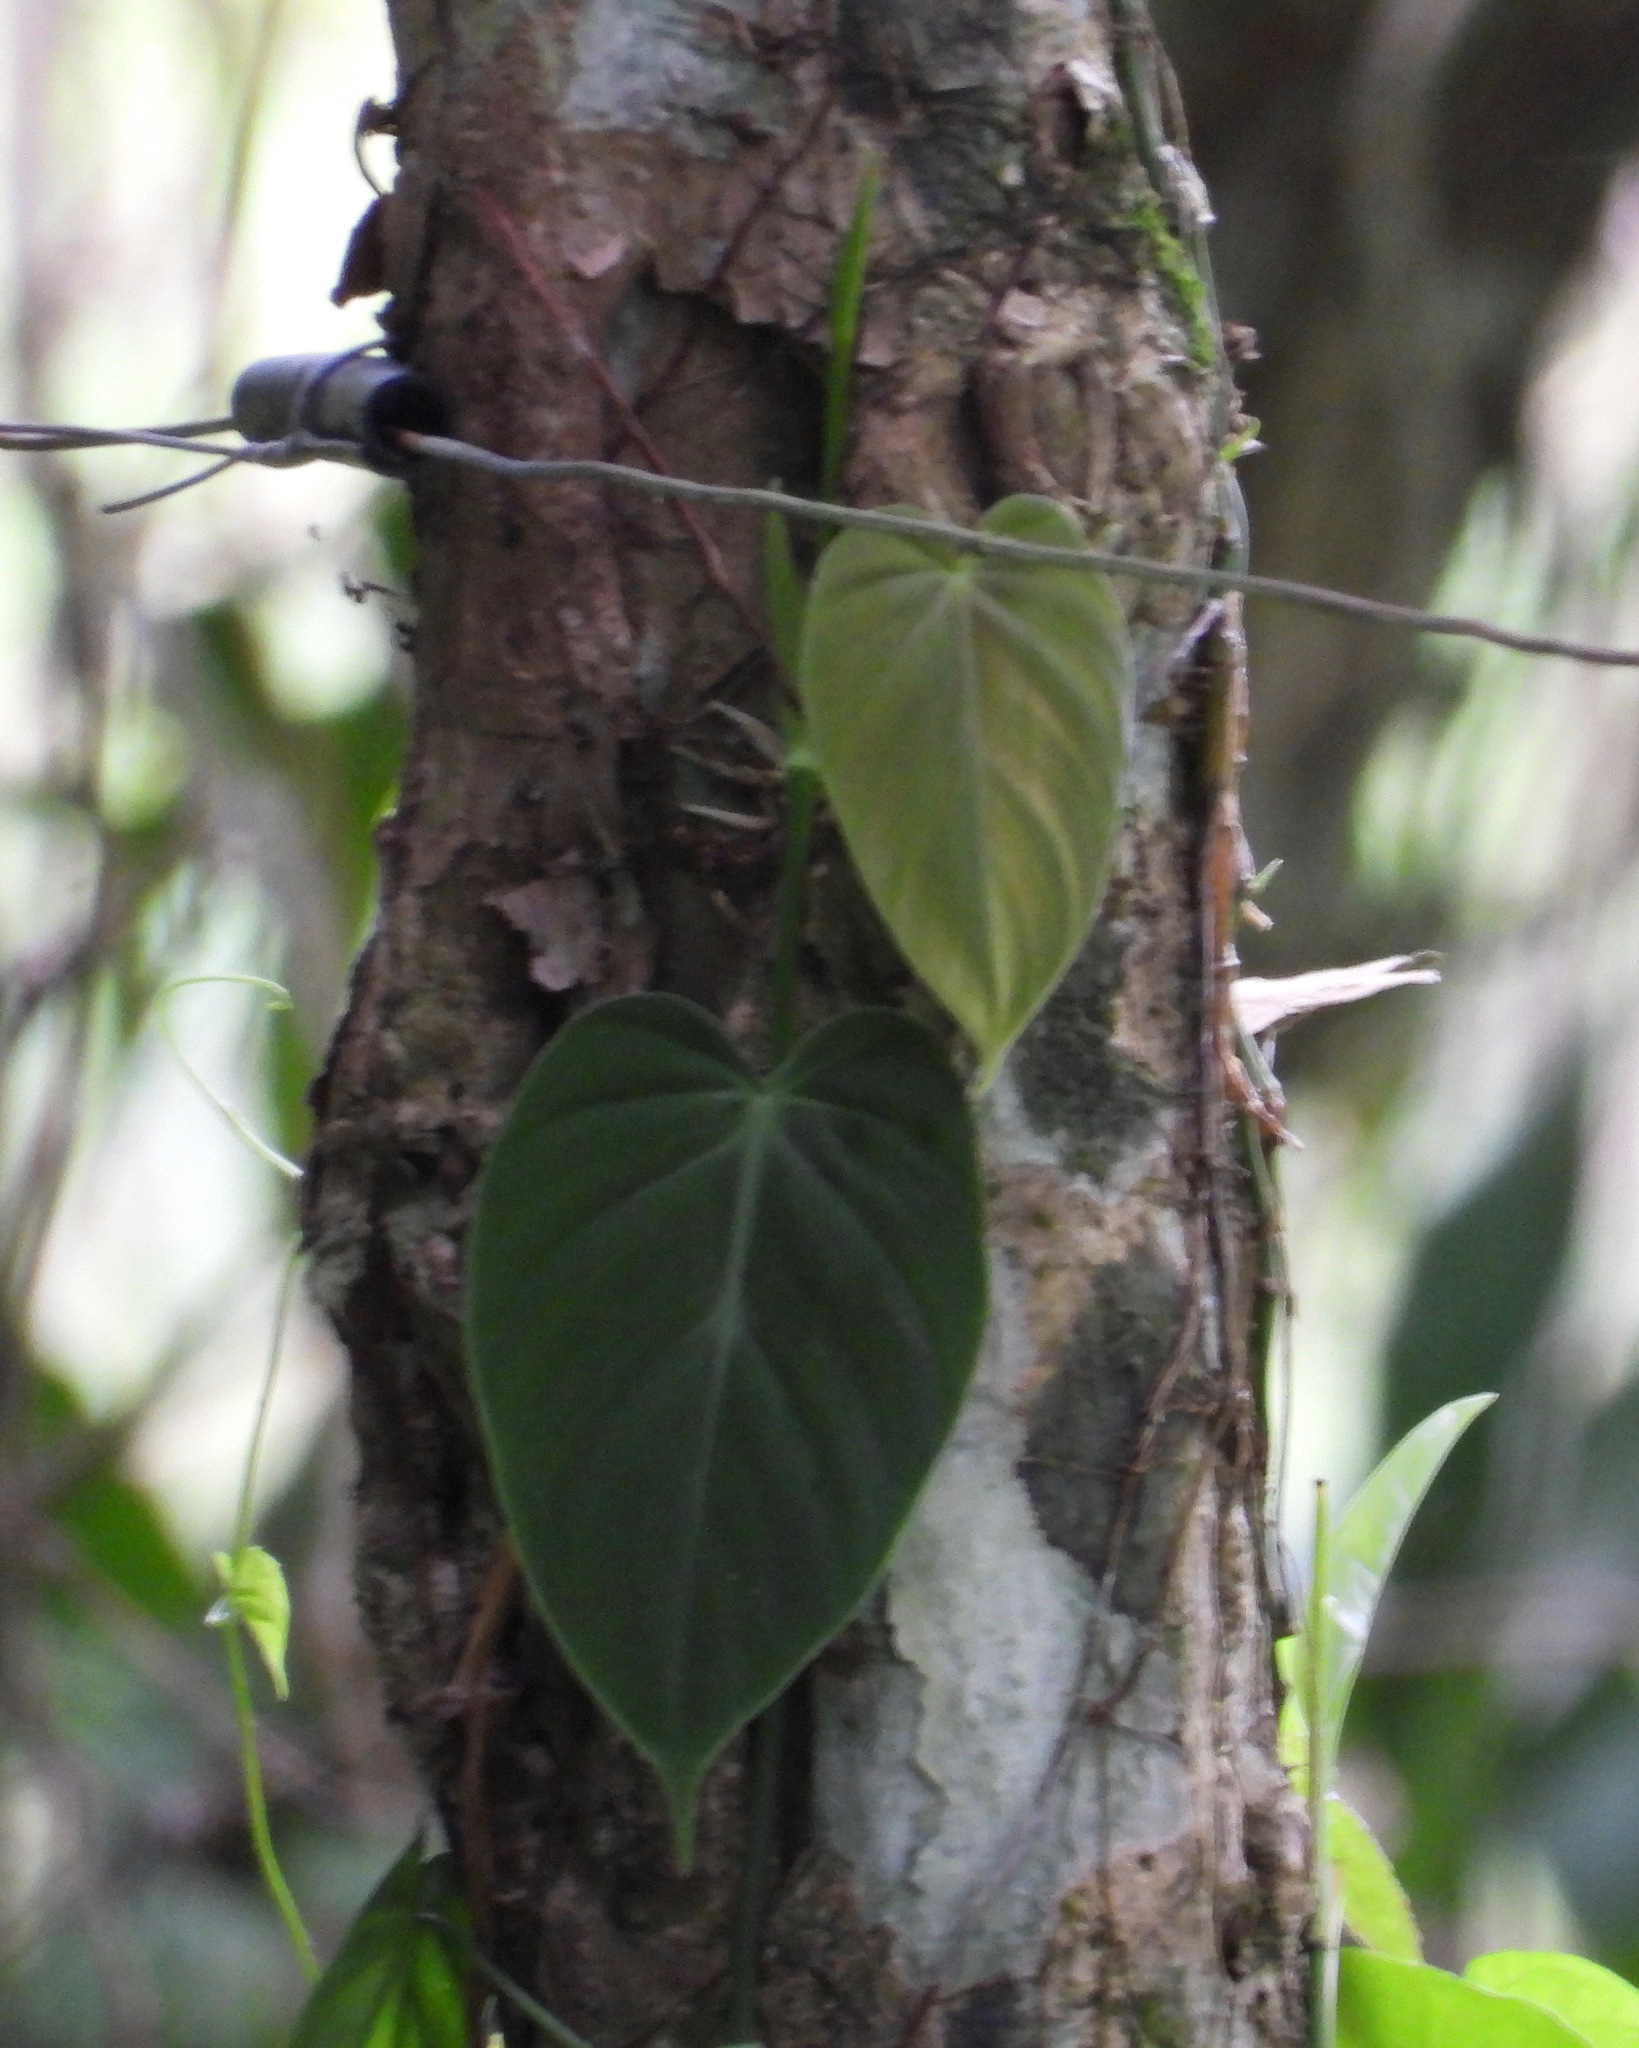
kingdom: Plantae
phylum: Tracheophyta
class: Liliopsida
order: Alismatales
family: Araceae
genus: Philodendron
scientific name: Philodendron hederaceum
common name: Vilevine
